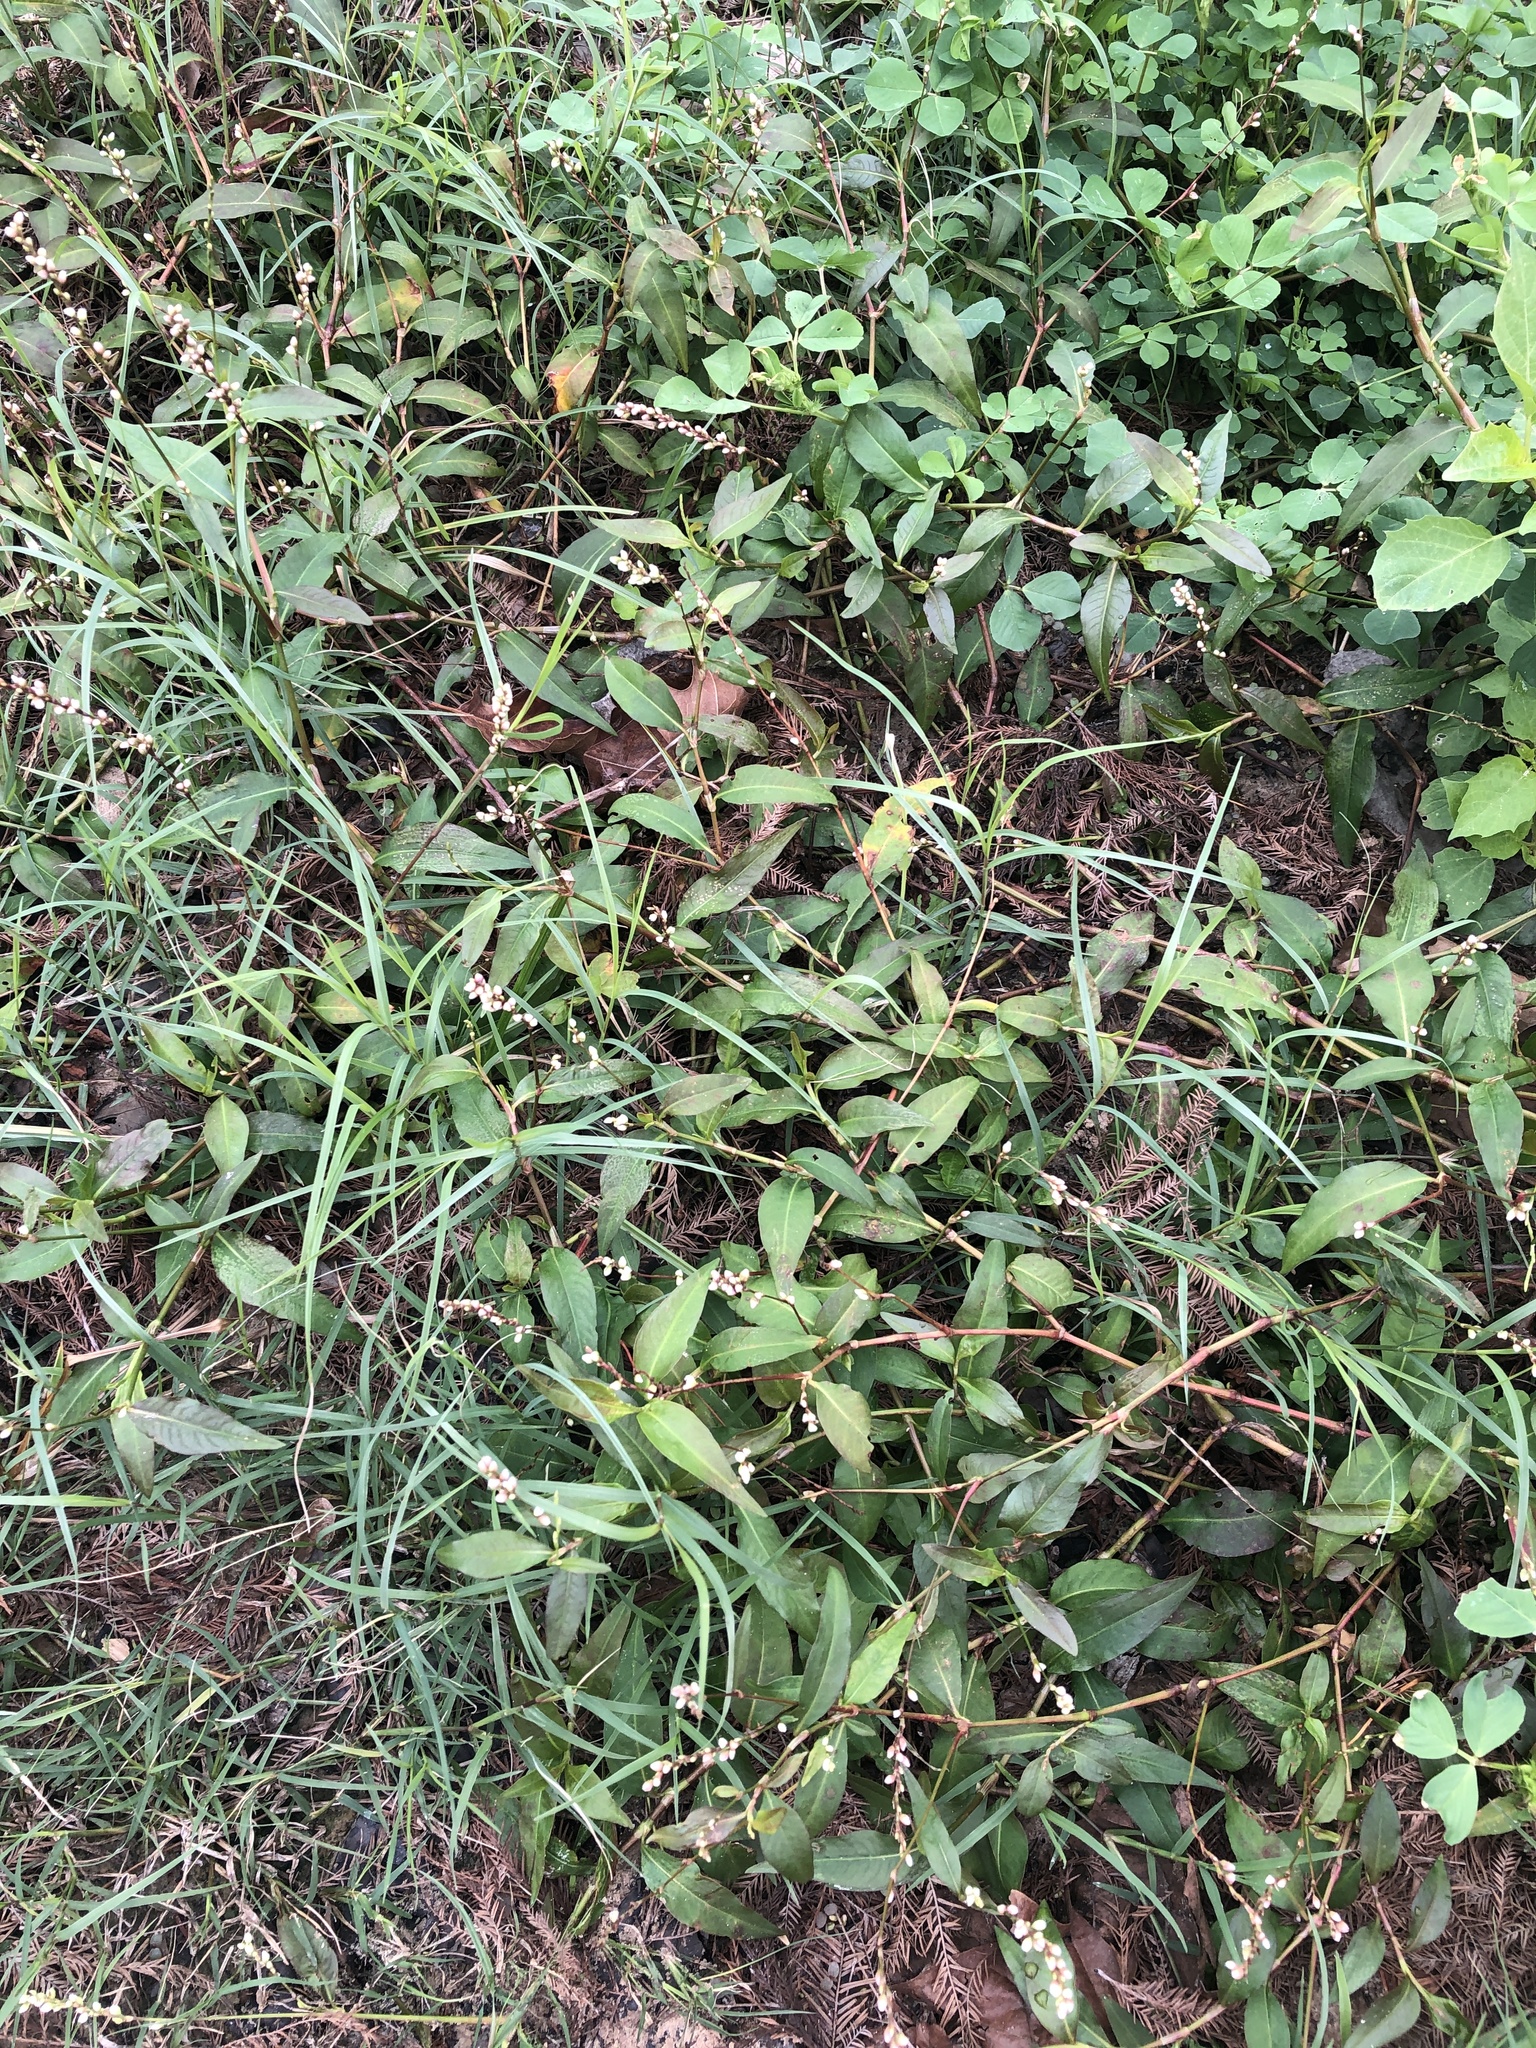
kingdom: Plantae
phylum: Tracheophyta
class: Magnoliopsida
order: Caryophyllales
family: Polygonaceae
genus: Persicaria
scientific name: Persicaria punctata
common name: Dotted smartweed
